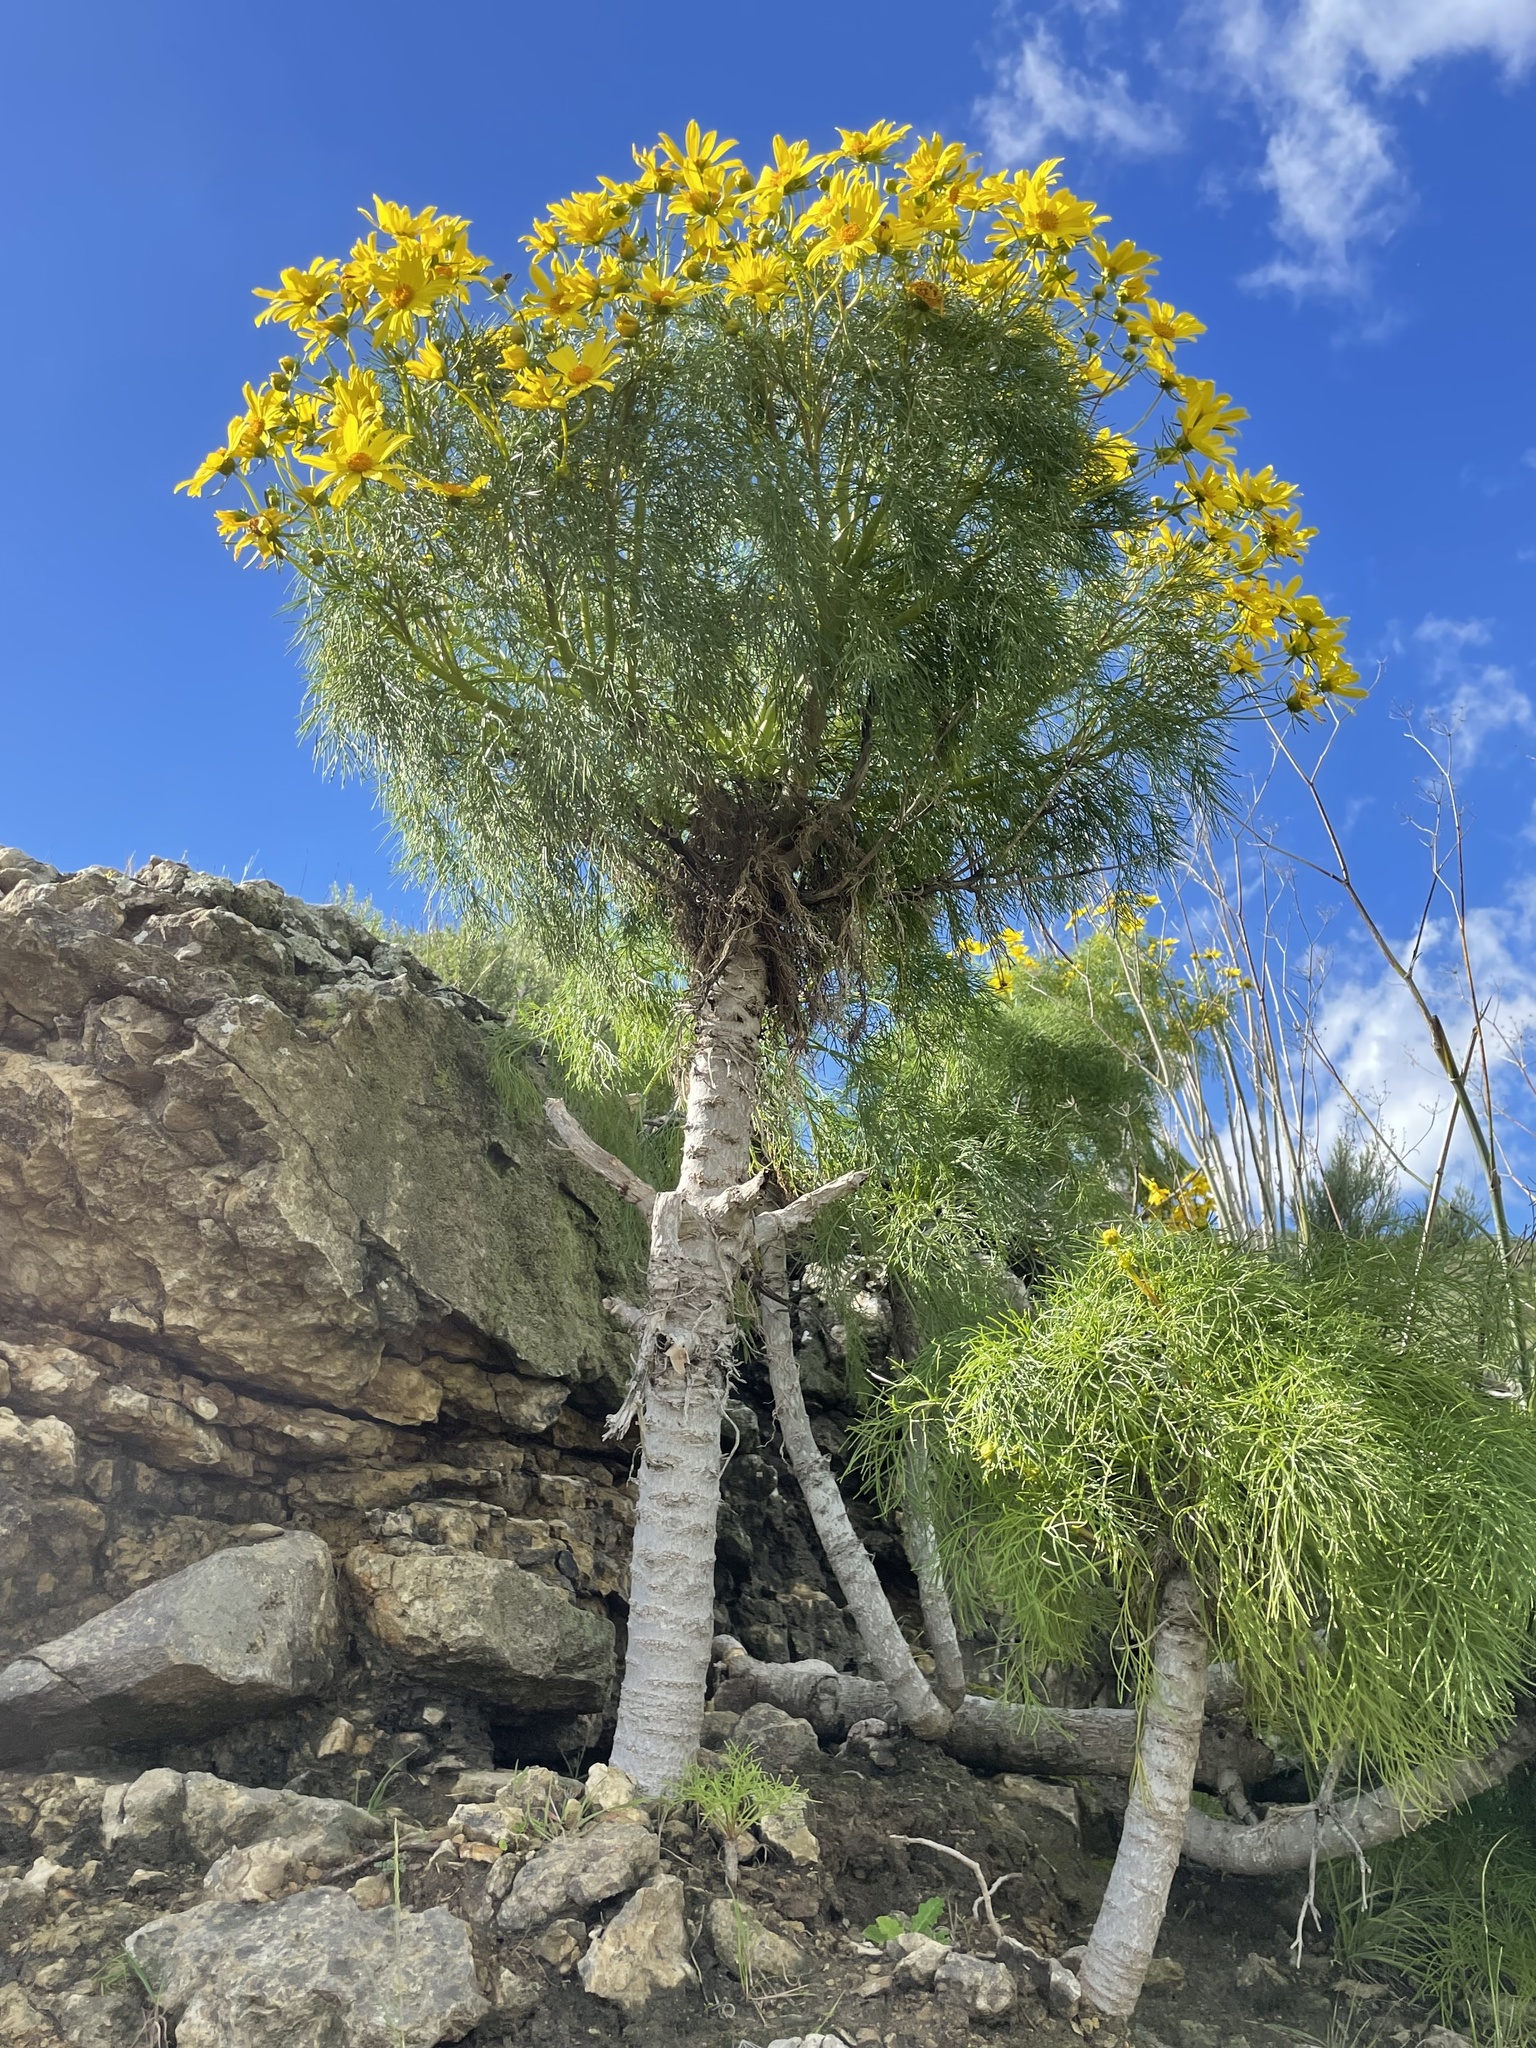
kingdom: Plantae
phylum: Tracheophyta
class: Magnoliopsida
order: Asterales
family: Asteraceae
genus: Coreopsis
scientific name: Coreopsis gigantea
